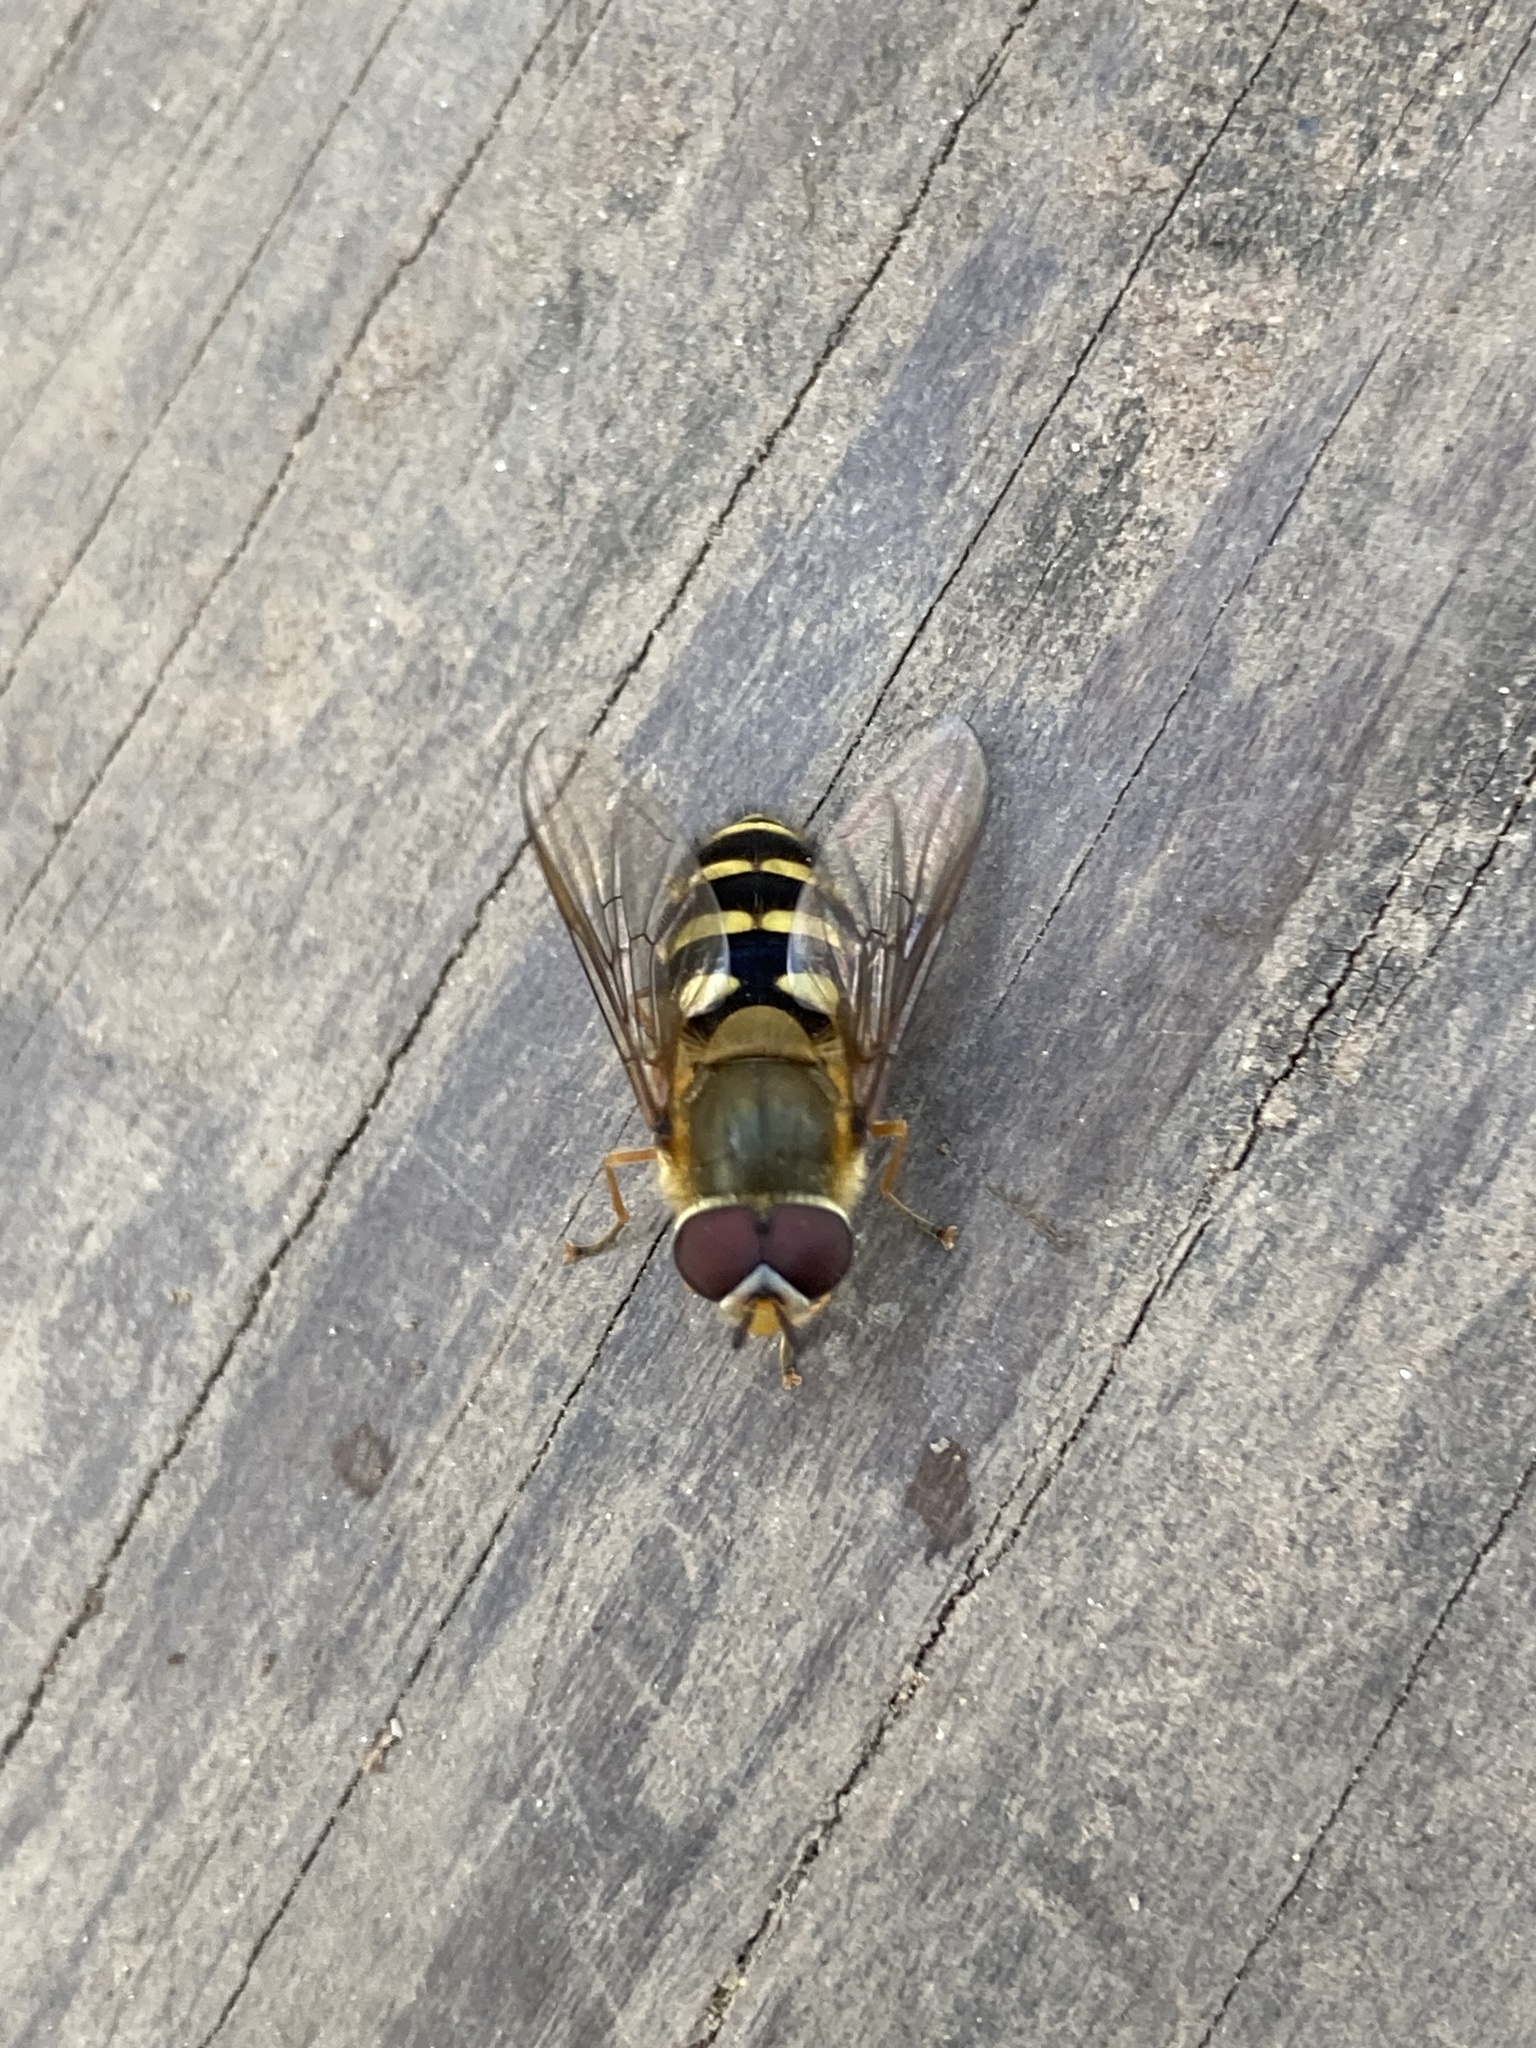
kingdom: Animalia
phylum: Arthropoda
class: Insecta
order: Diptera
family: Syrphidae
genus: Syrphus
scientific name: Syrphus
